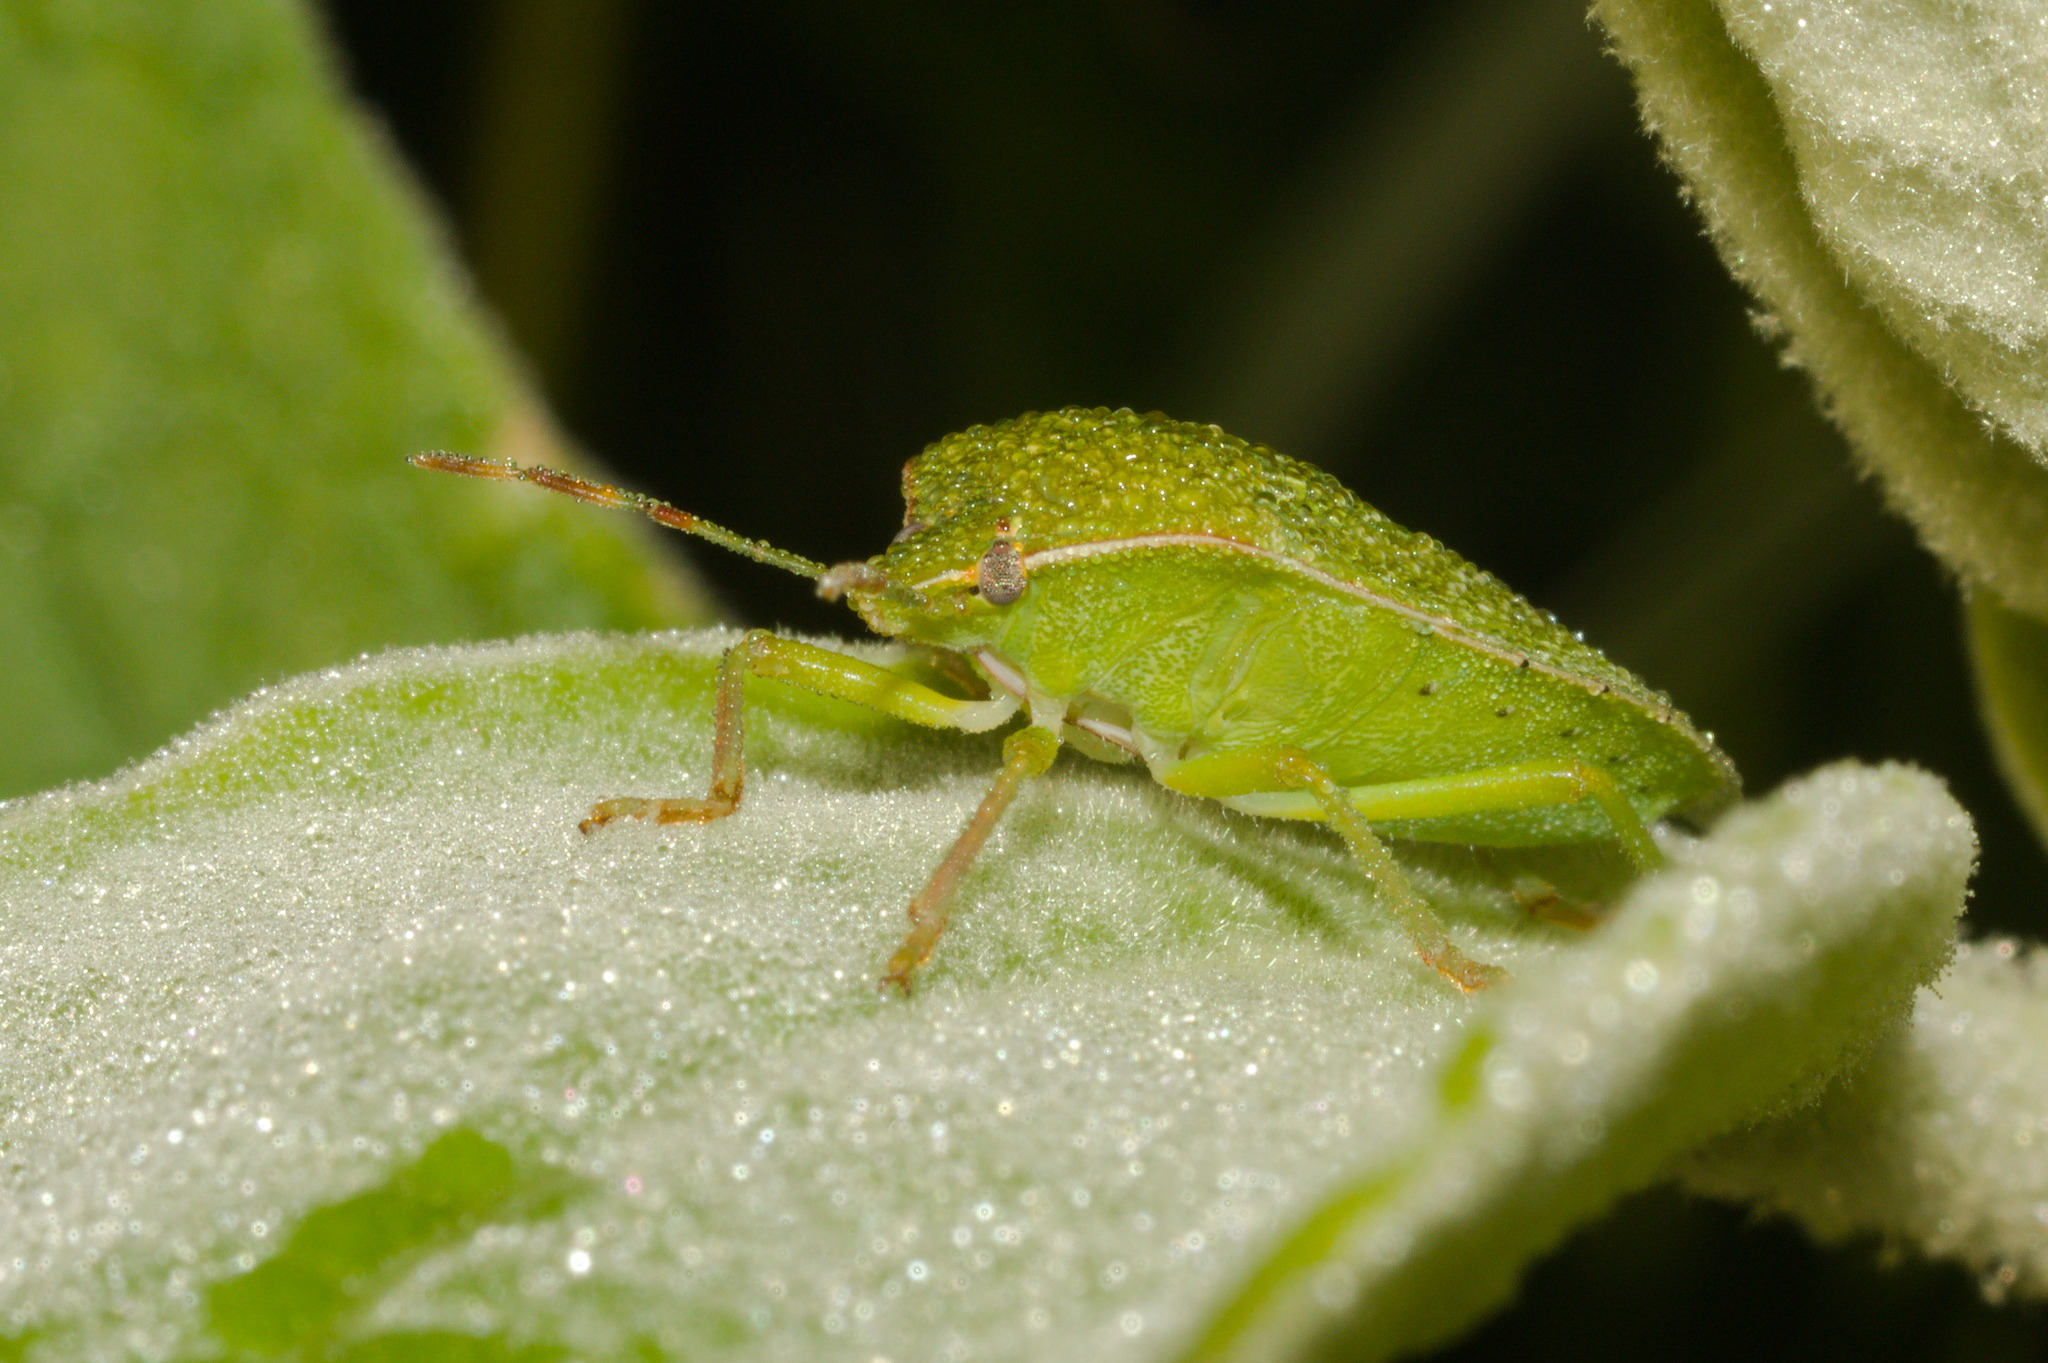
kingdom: Animalia
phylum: Arthropoda
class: Insecta
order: Hemiptera
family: Pentatomidae
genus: Nezara
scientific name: Nezara viridula
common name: Southern green stink bug
